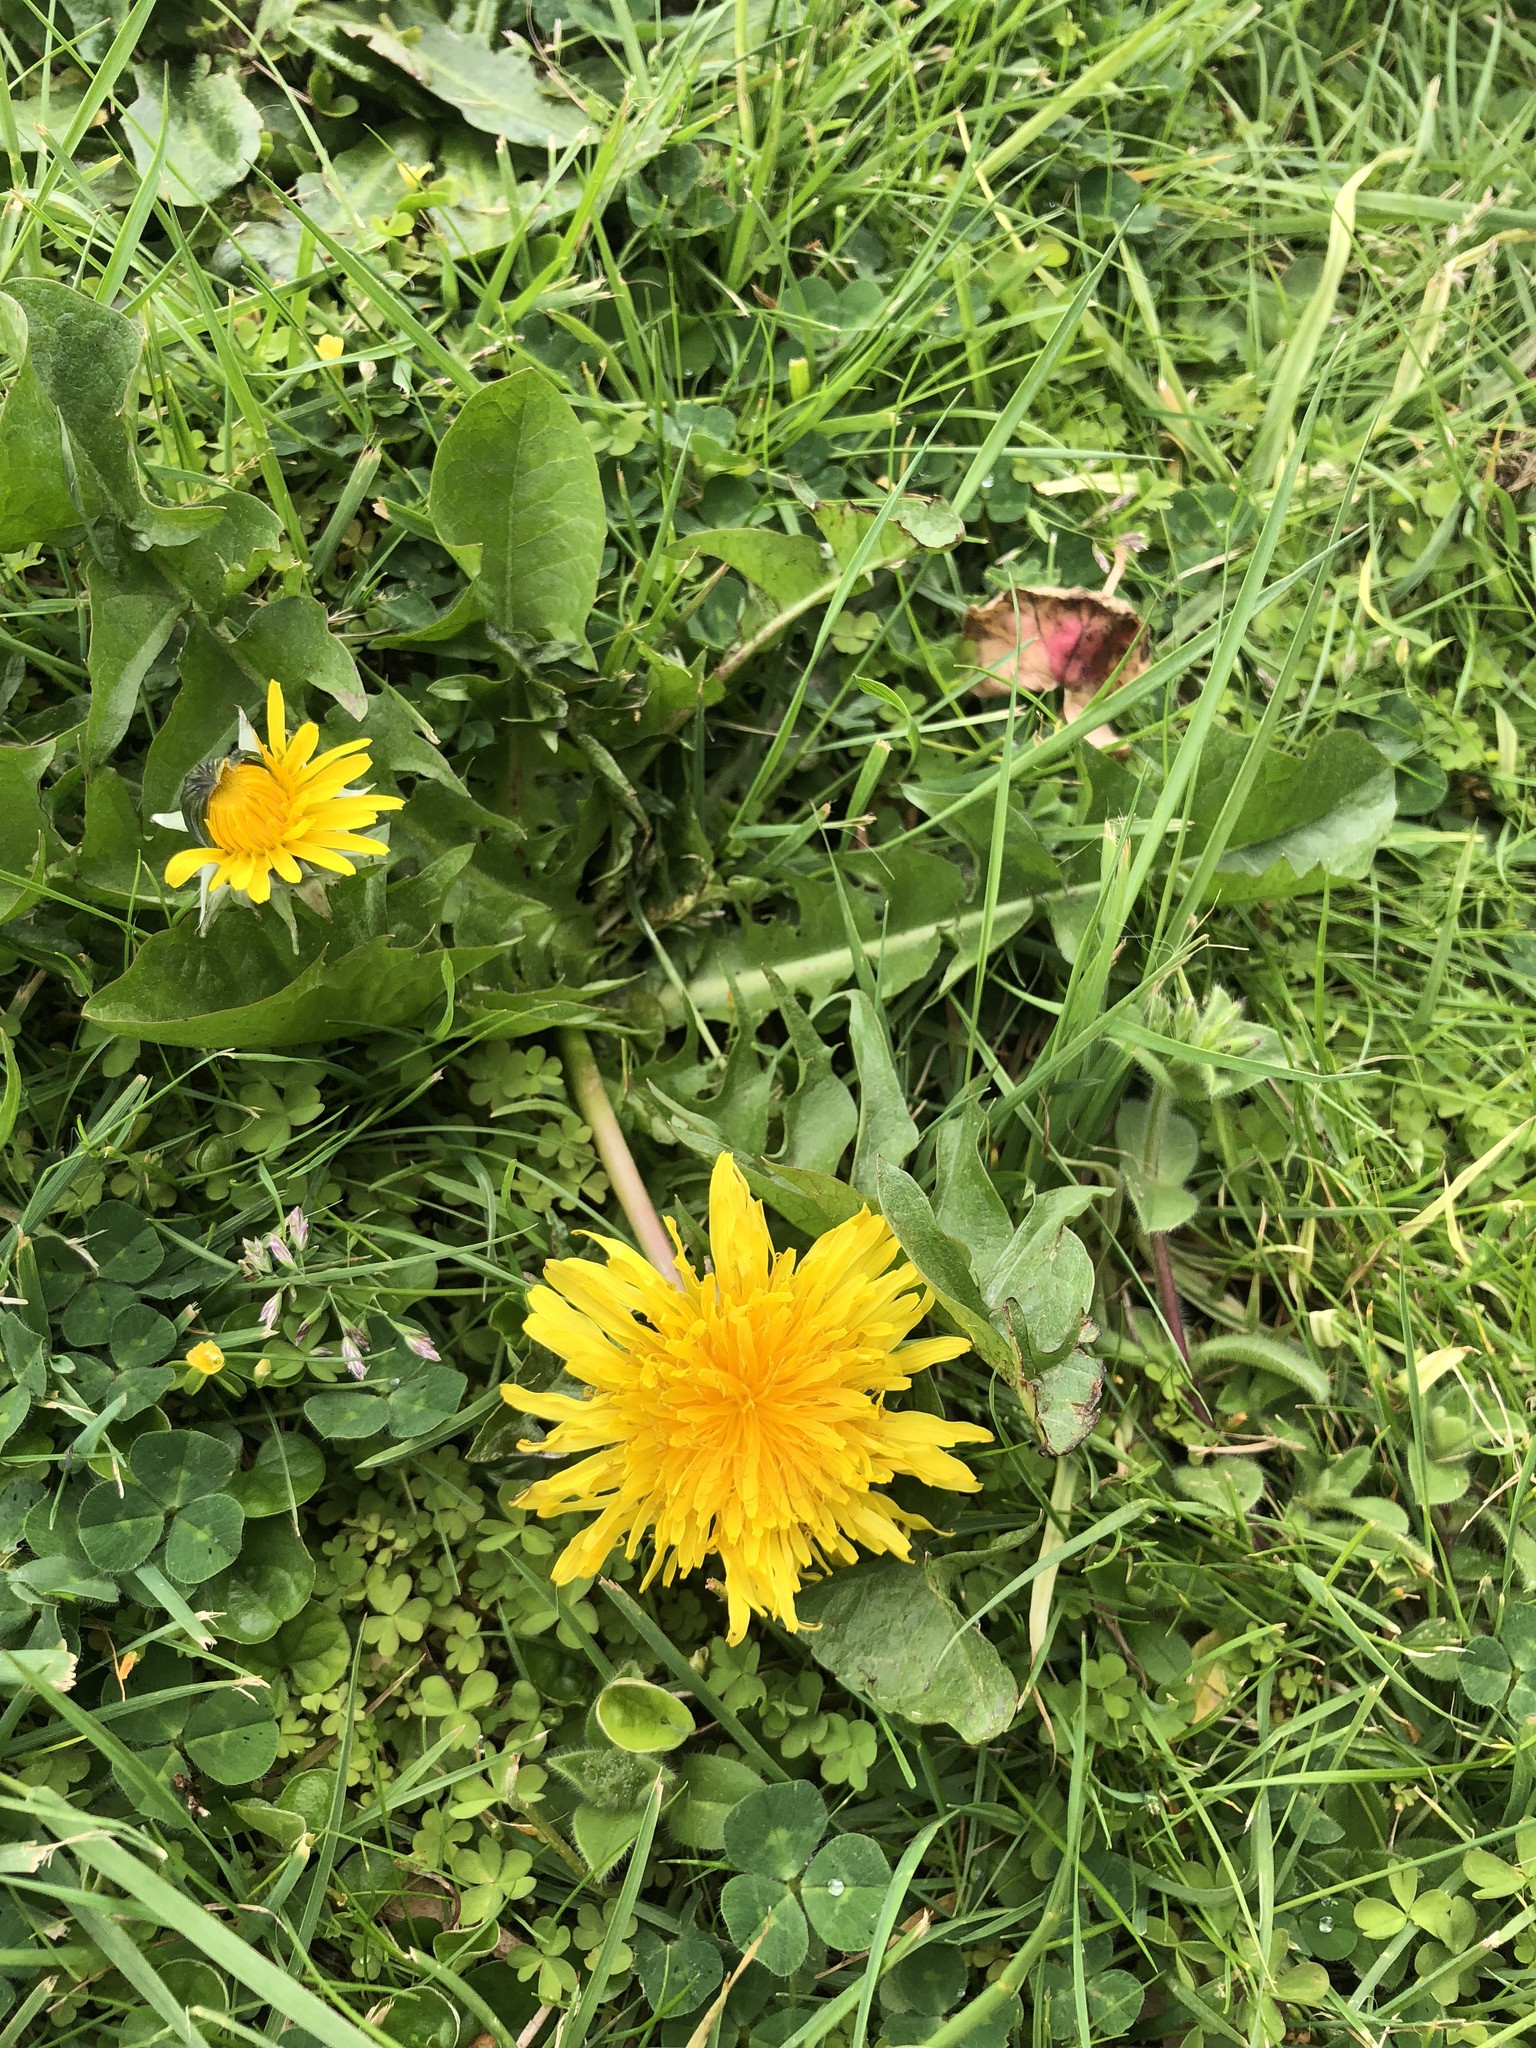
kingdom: Plantae
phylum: Tracheophyta
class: Magnoliopsida
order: Asterales
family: Asteraceae
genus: Taraxacum
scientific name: Taraxacum officinale
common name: Common dandelion
